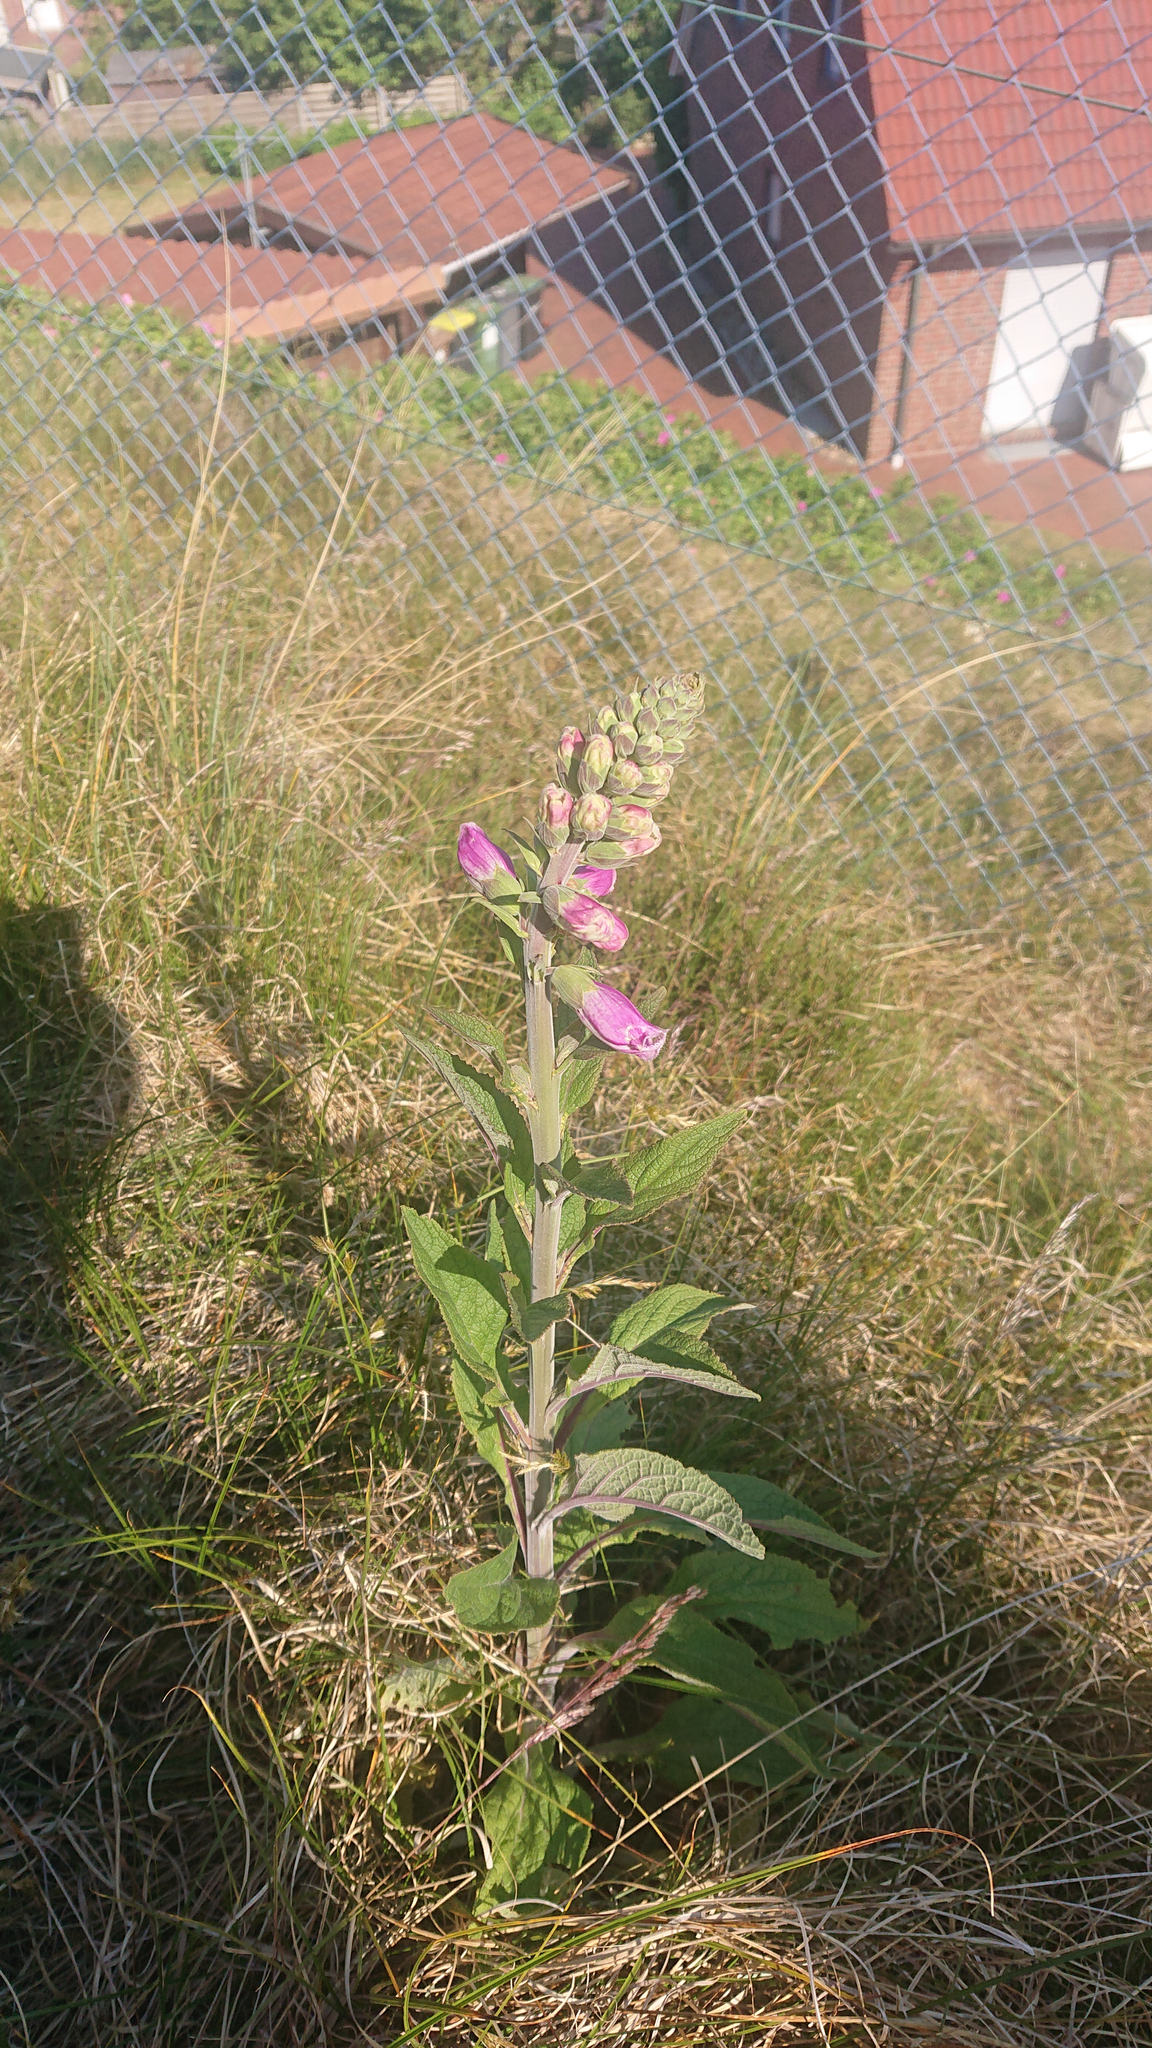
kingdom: Plantae
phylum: Tracheophyta
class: Magnoliopsida
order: Lamiales
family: Plantaginaceae
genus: Digitalis
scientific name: Digitalis purpurea
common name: Foxglove
